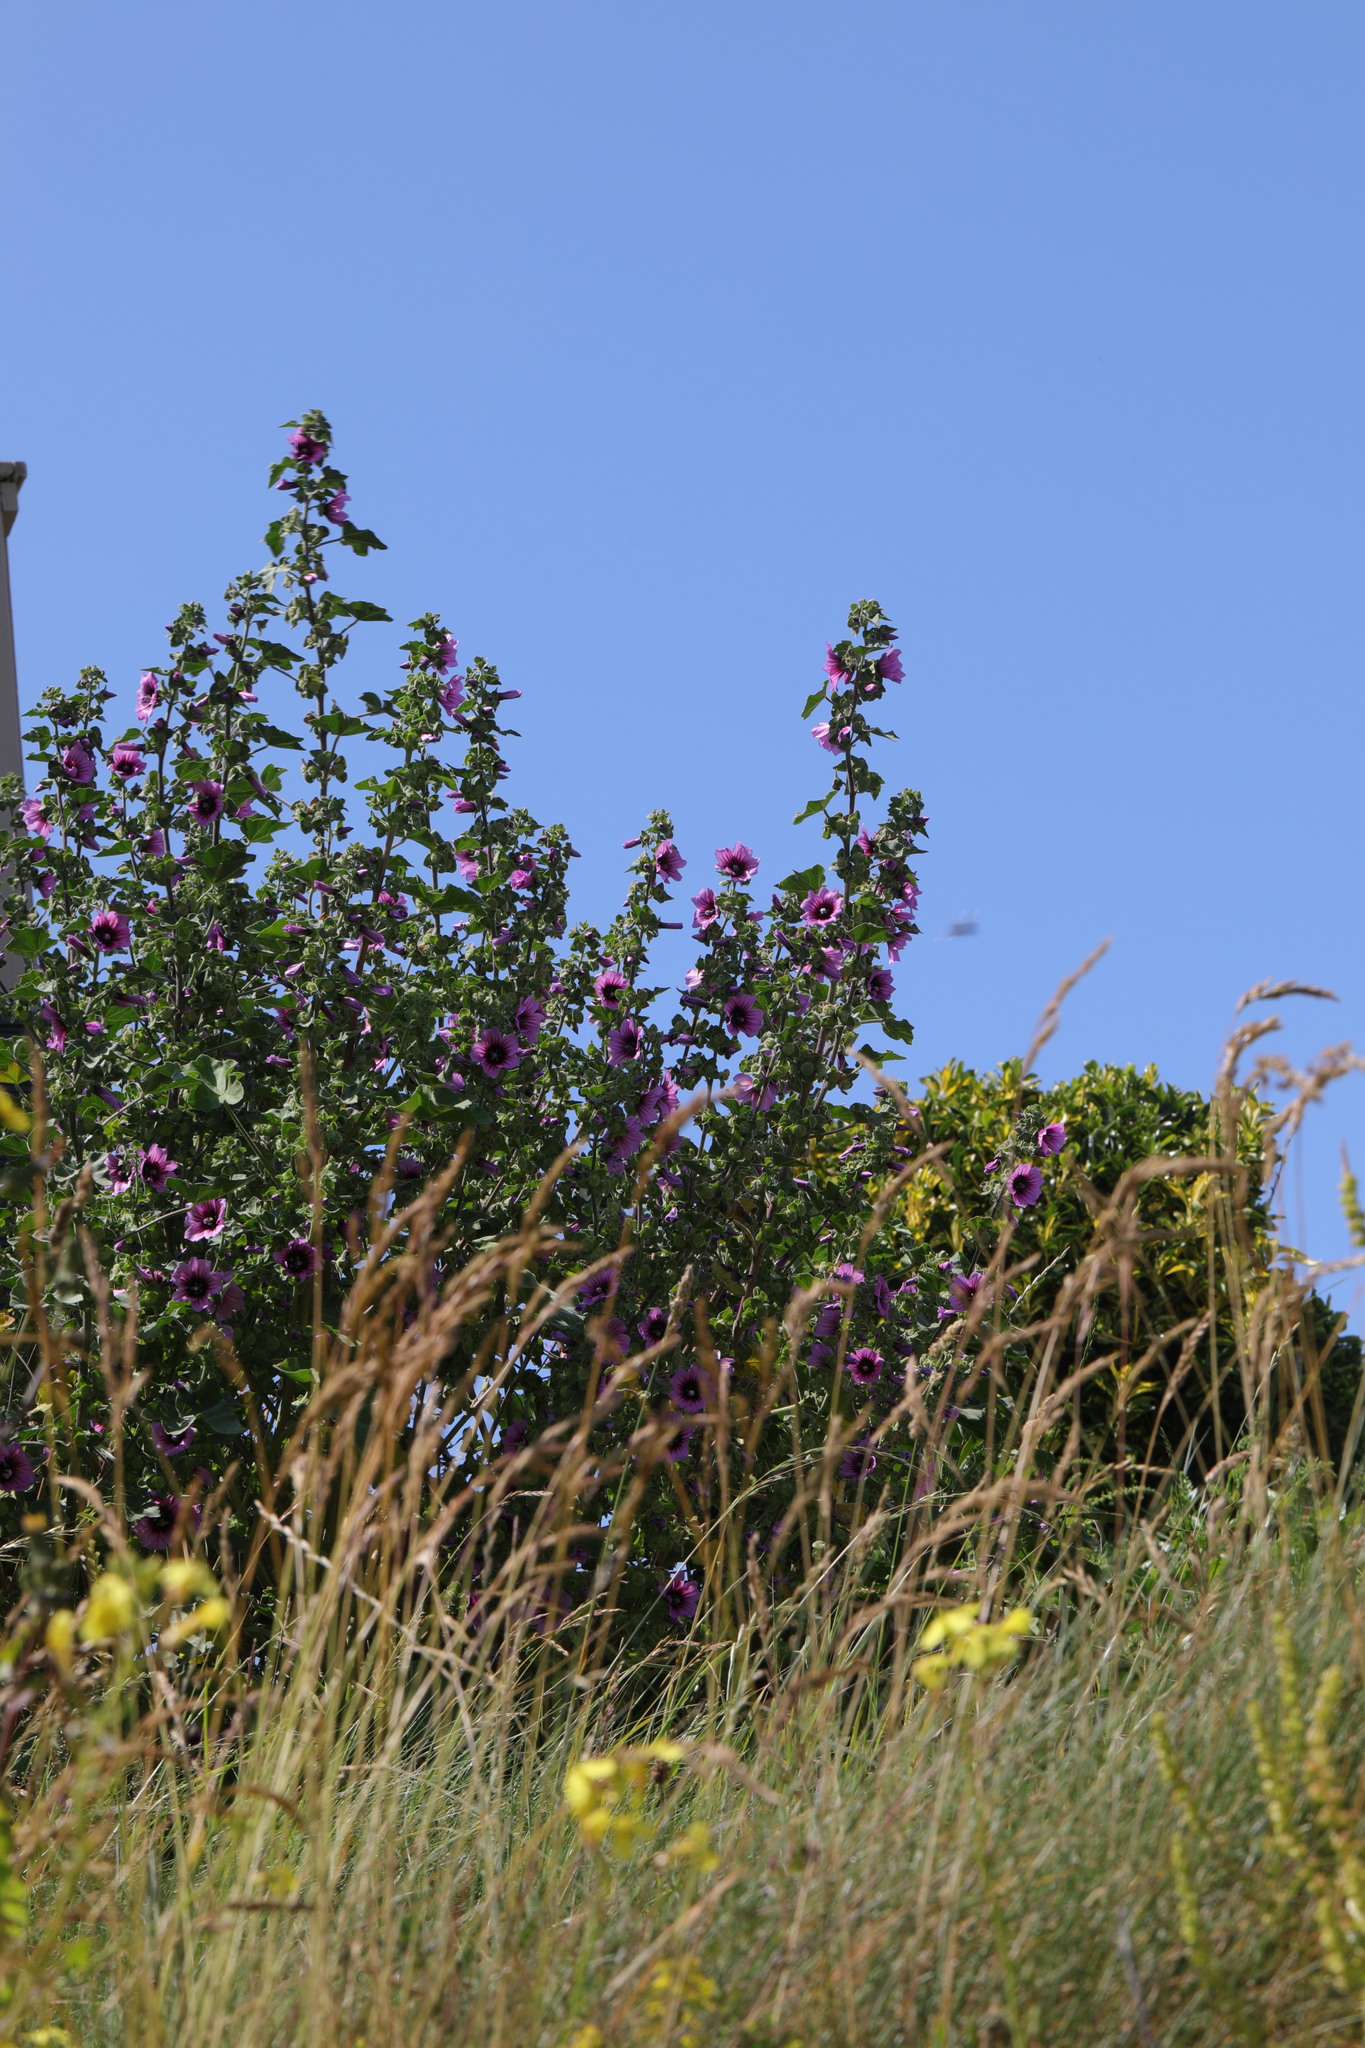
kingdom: Plantae
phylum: Tracheophyta
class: Magnoliopsida
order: Malvales
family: Malvaceae
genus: Malva
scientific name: Malva arborea
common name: Tree mallow
